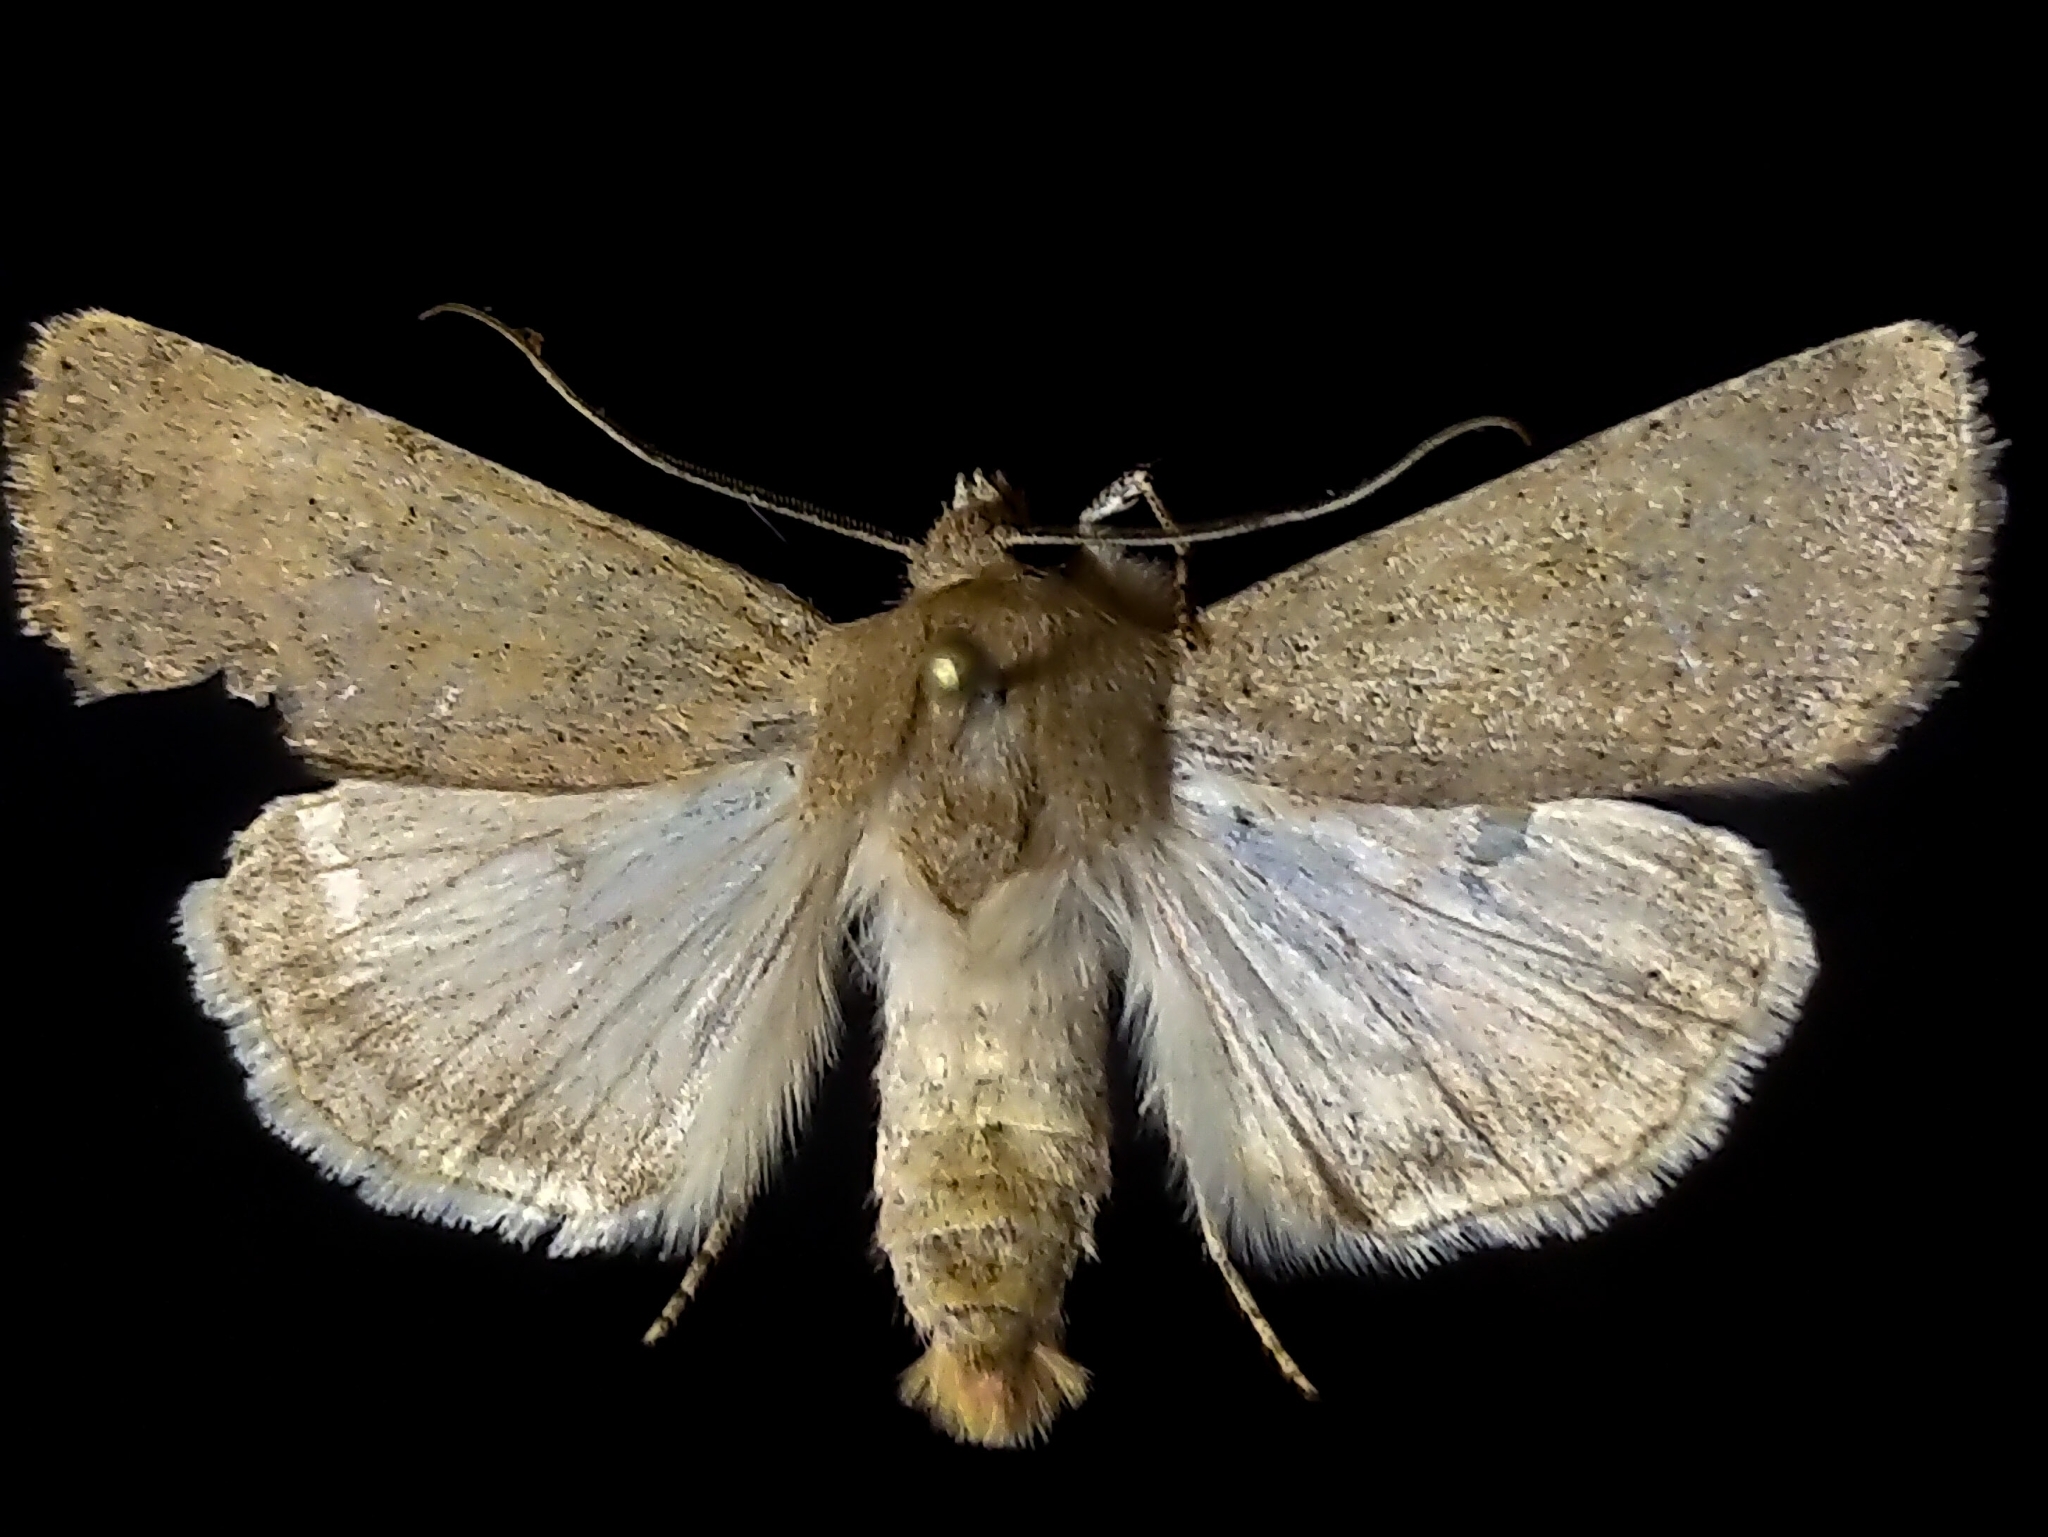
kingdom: Animalia
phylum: Arthropoda
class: Insecta
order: Lepidoptera
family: Noctuidae
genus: Euxoa
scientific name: Euxoa spumata
